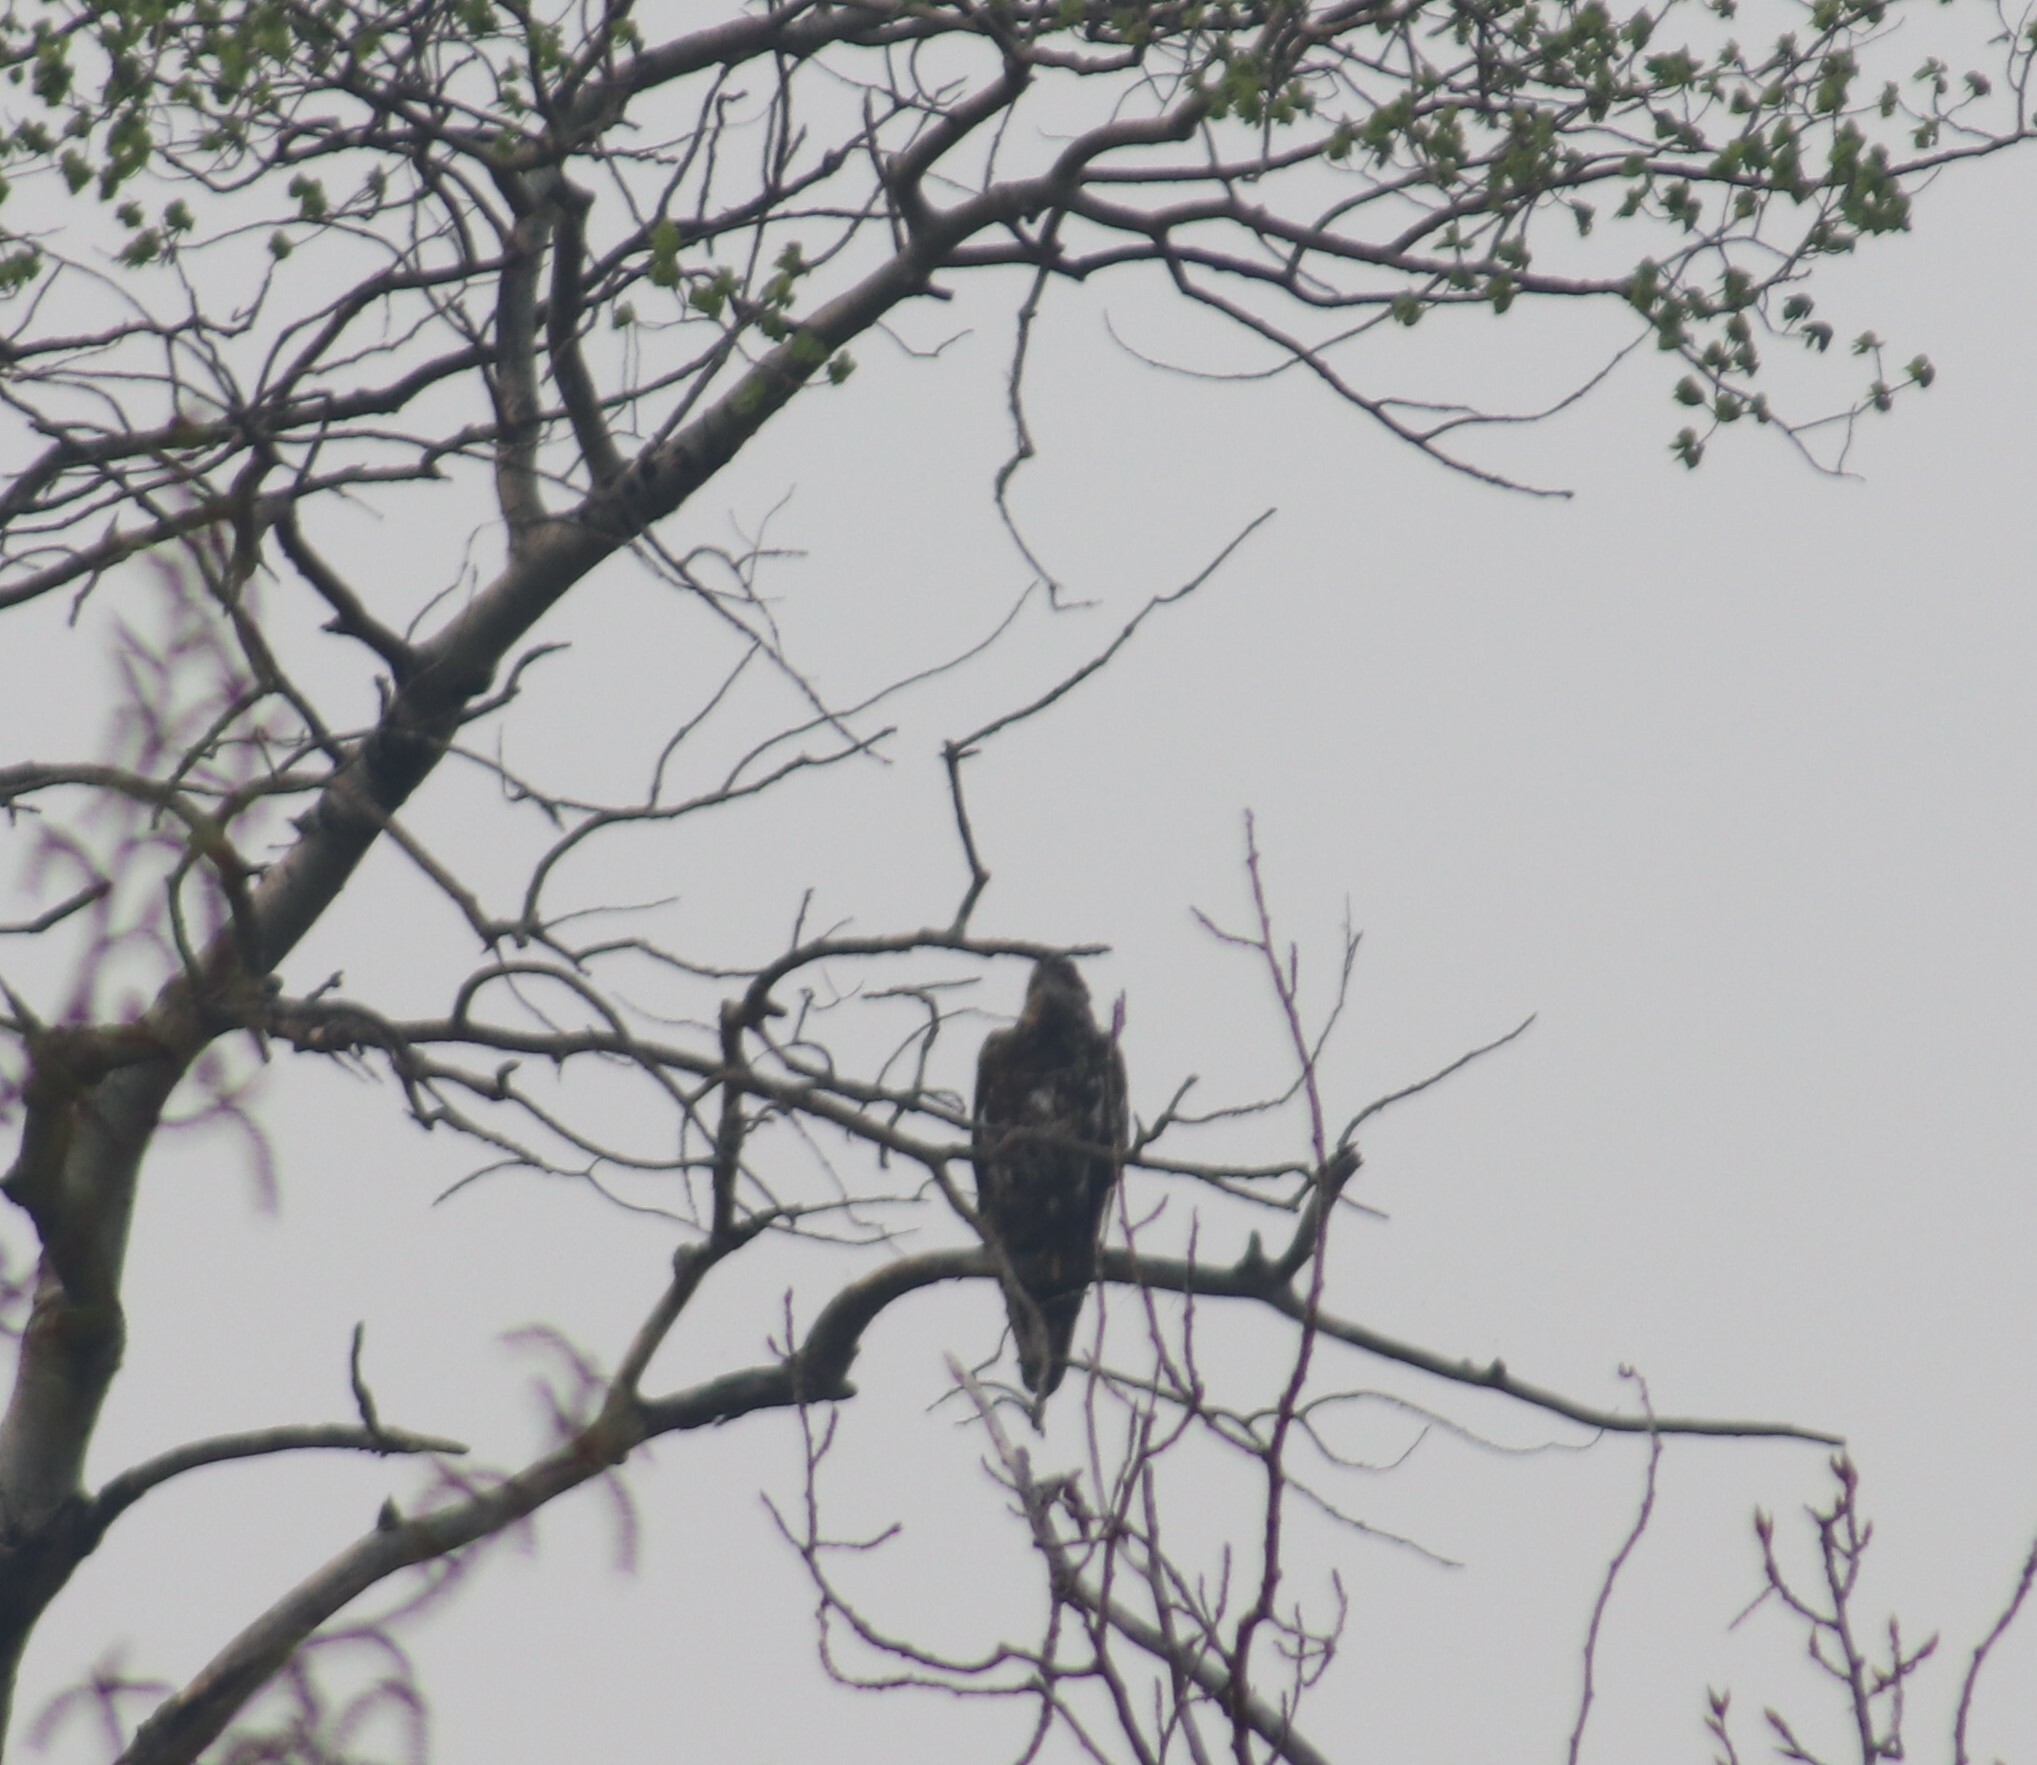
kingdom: Animalia
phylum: Chordata
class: Aves
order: Accipitriformes
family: Accipitridae
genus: Haliaeetus
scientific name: Haliaeetus leucocephalus
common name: Bald eagle
